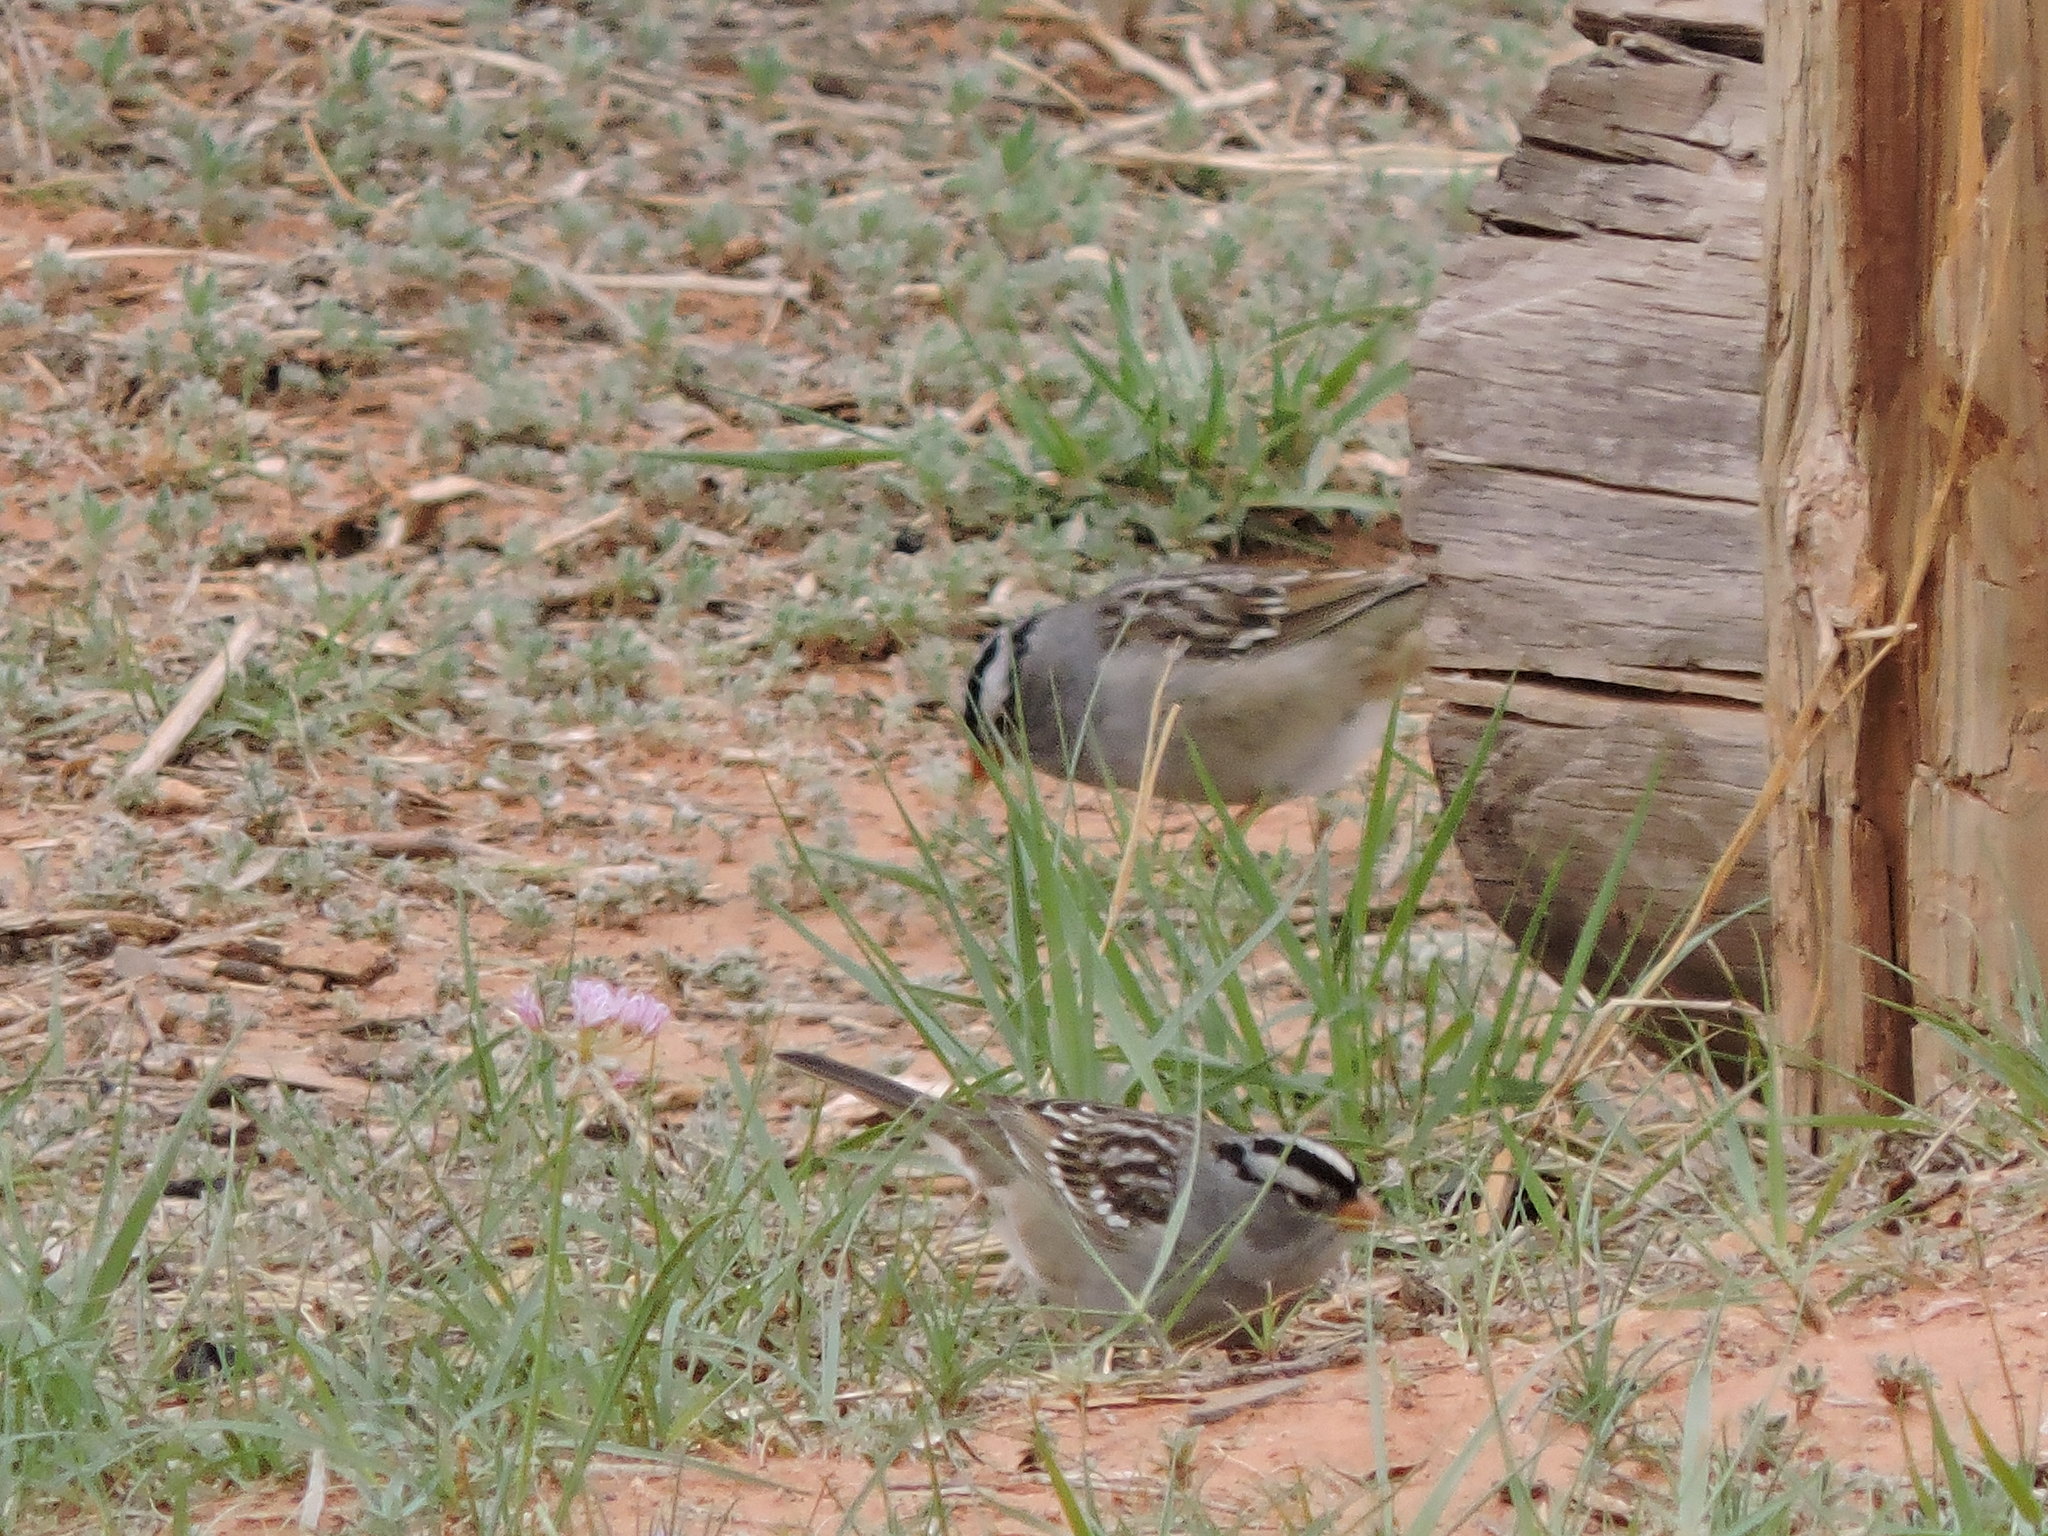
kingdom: Animalia
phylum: Chordata
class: Aves
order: Passeriformes
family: Passerellidae
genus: Zonotrichia
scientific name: Zonotrichia leucophrys
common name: White-crowned sparrow
